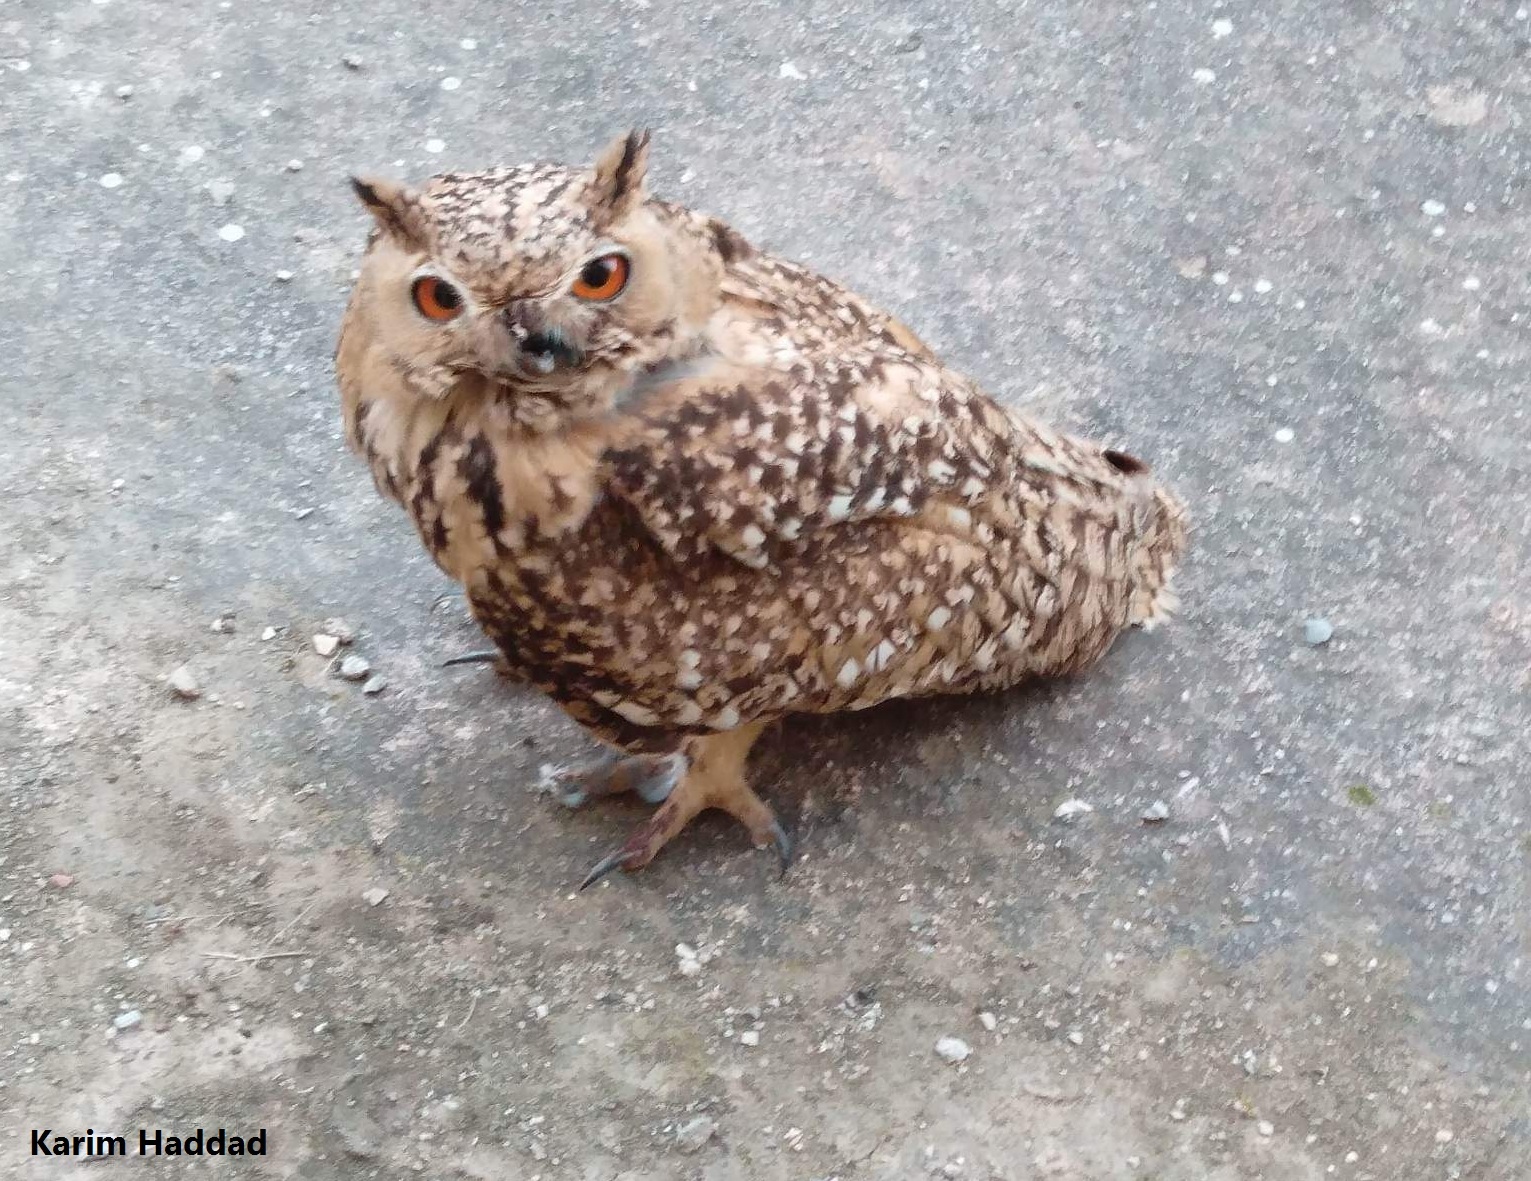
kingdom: Animalia
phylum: Chordata
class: Aves
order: Strigiformes
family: Strigidae
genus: Bubo
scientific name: Bubo ascalaphus
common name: Pharaoh eagle-owl
